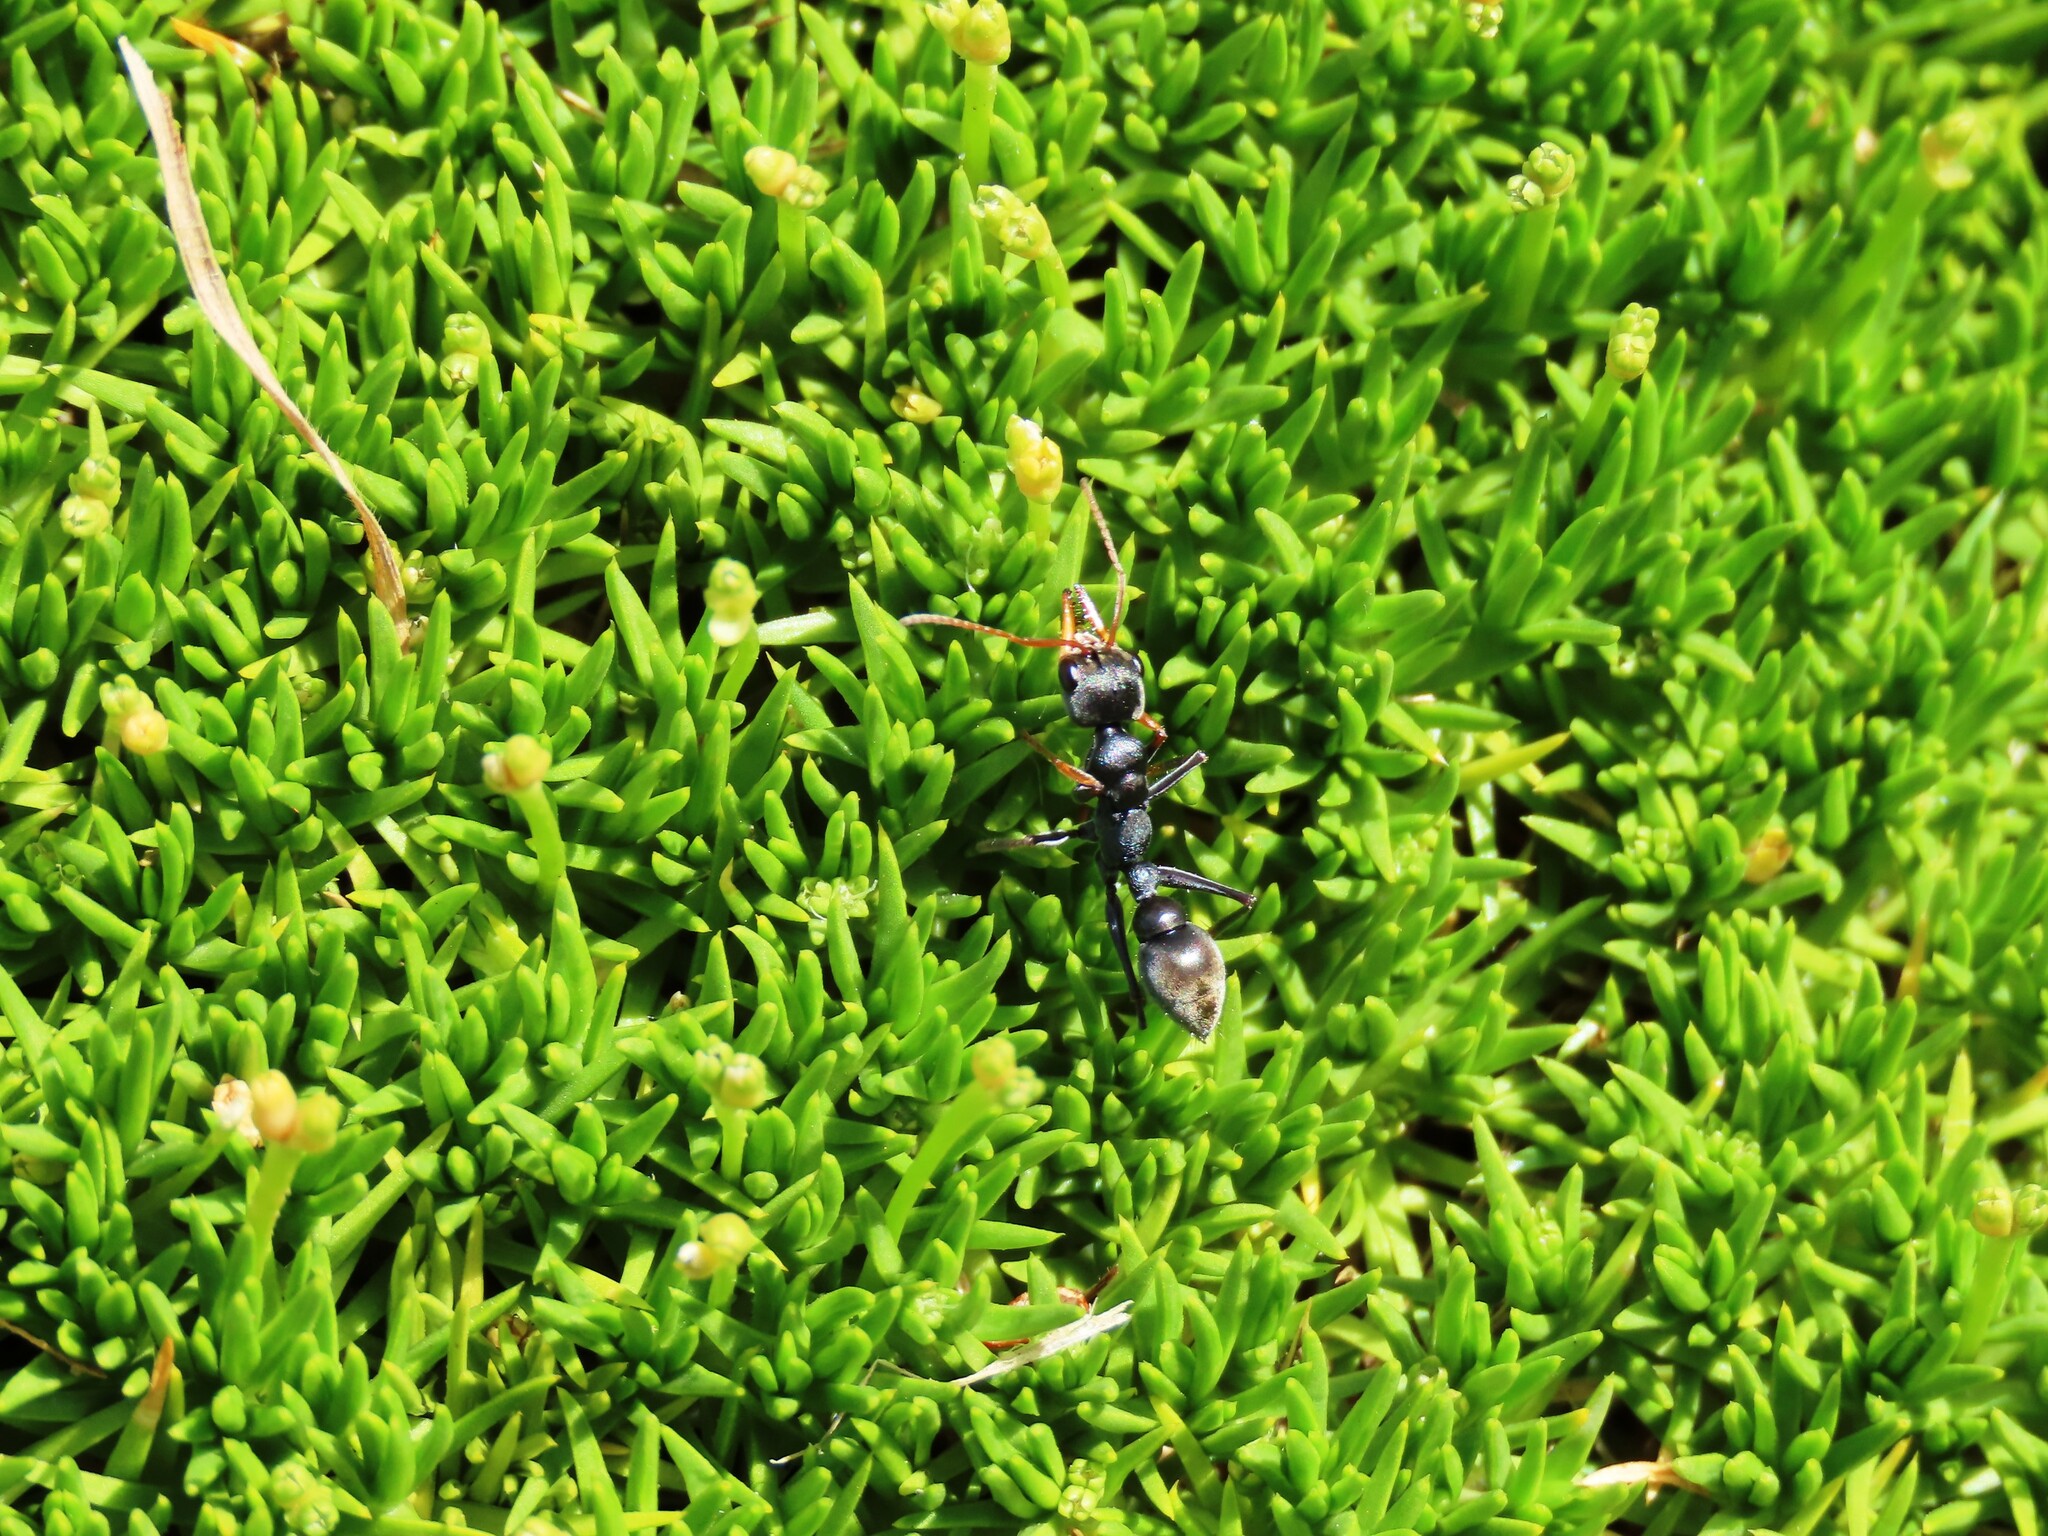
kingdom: Animalia
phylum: Arthropoda
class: Insecta
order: Hymenoptera
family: Formicidae
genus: Myrmecia
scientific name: Myrmecia pilosula
